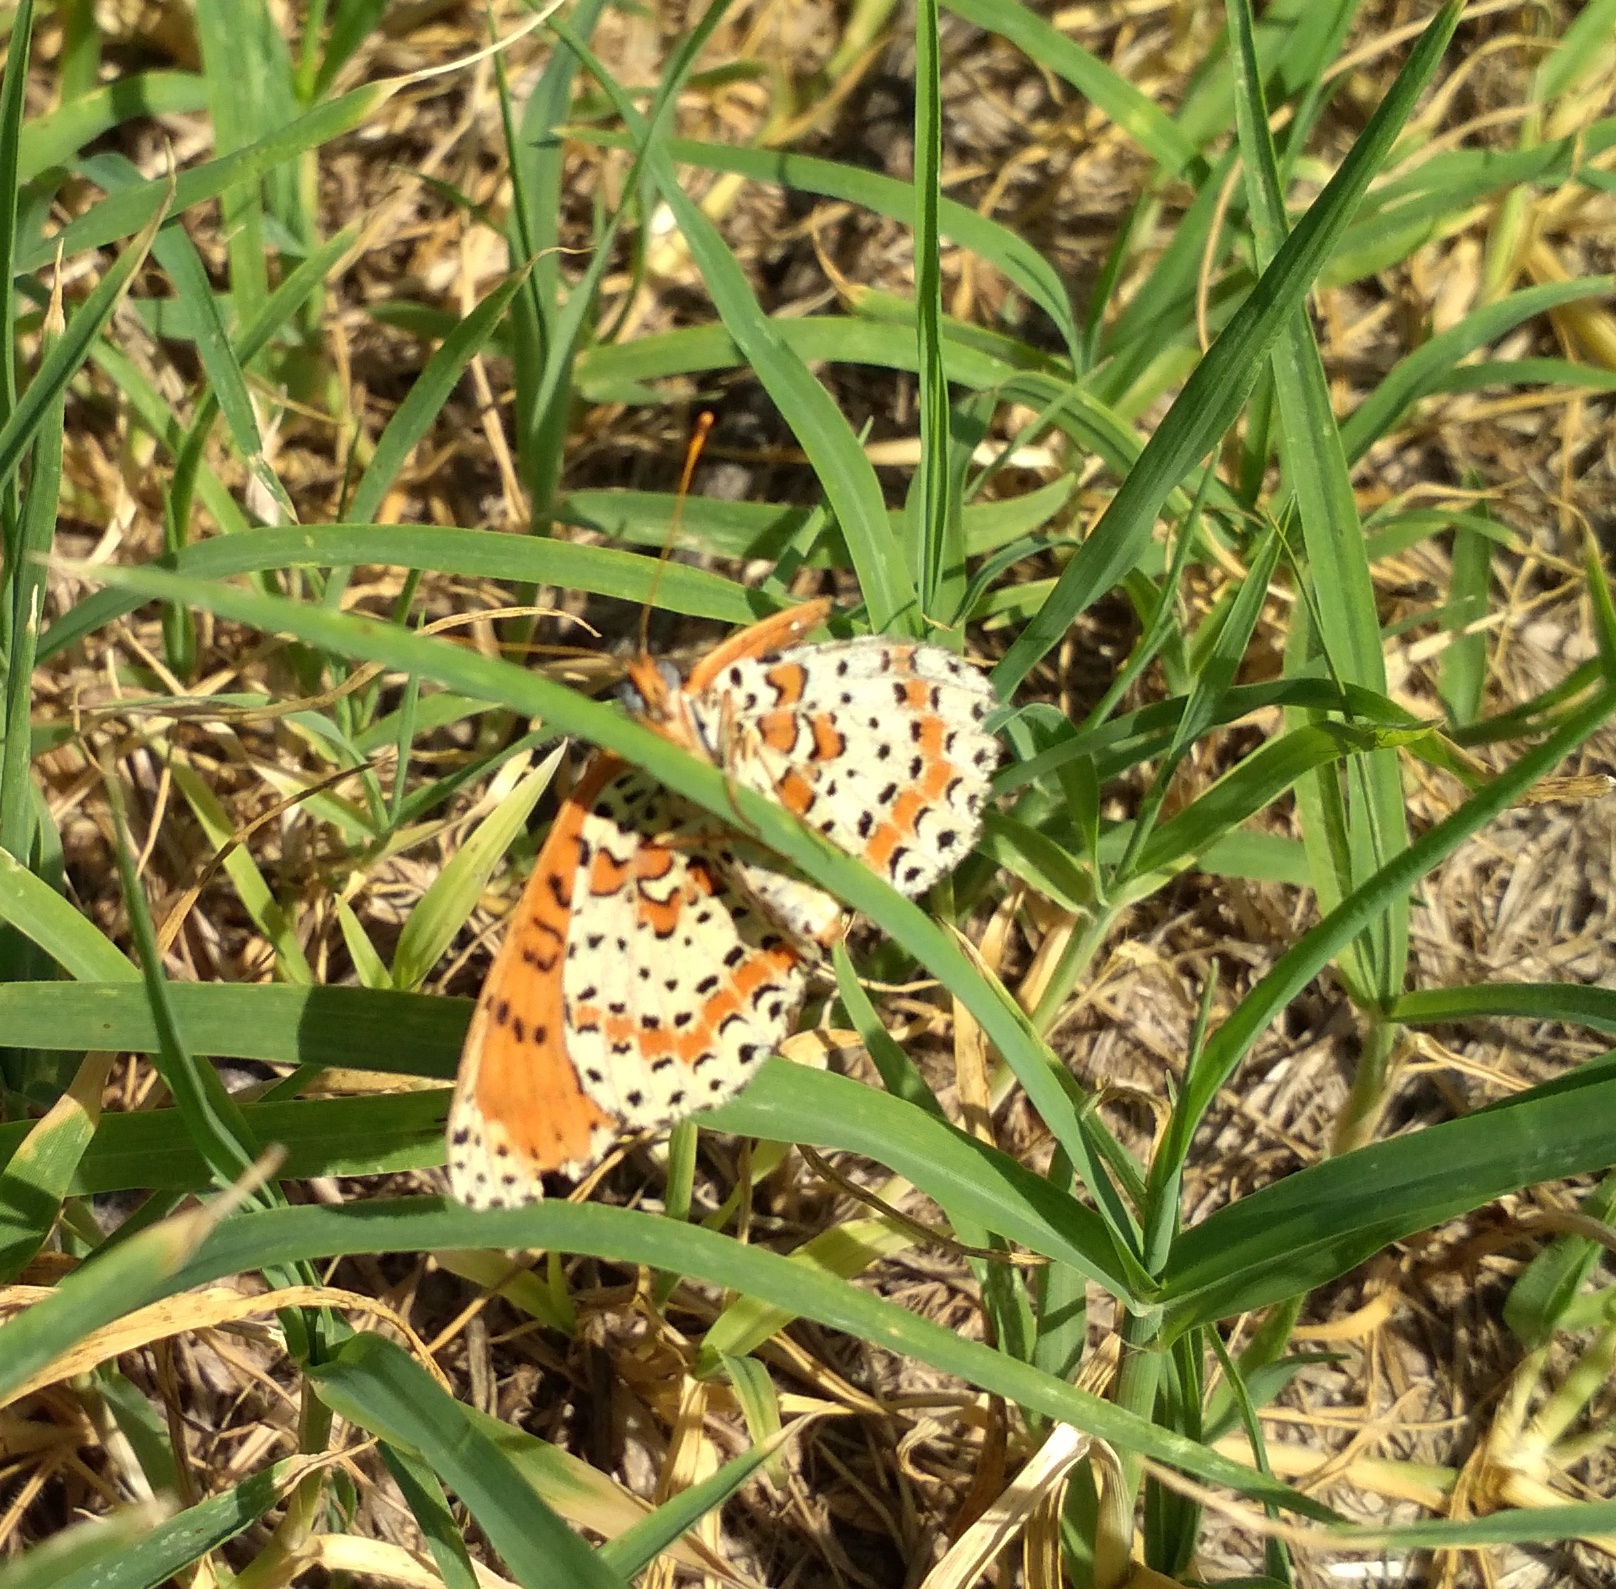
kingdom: Animalia
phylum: Arthropoda
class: Insecta
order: Lepidoptera
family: Nymphalidae
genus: Melitaea
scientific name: Melitaea didyma
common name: Spotted fritillary
